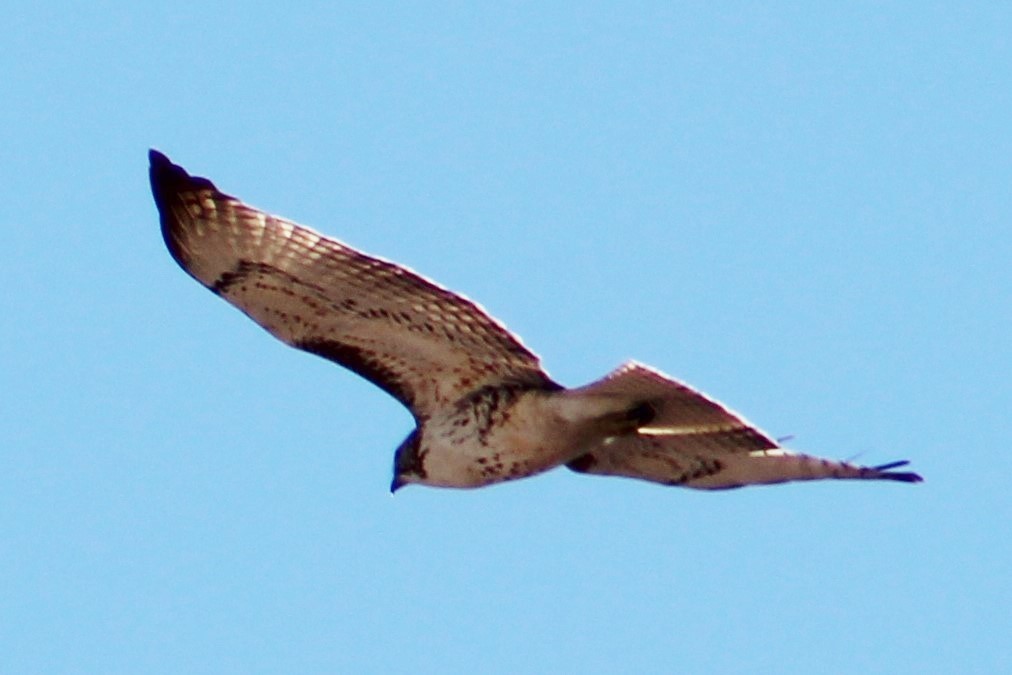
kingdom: Animalia
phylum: Chordata
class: Aves
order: Accipitriformes
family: Accipitridae
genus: Buteo
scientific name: Buteo jamaicensis
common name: Red-tailed hawk
